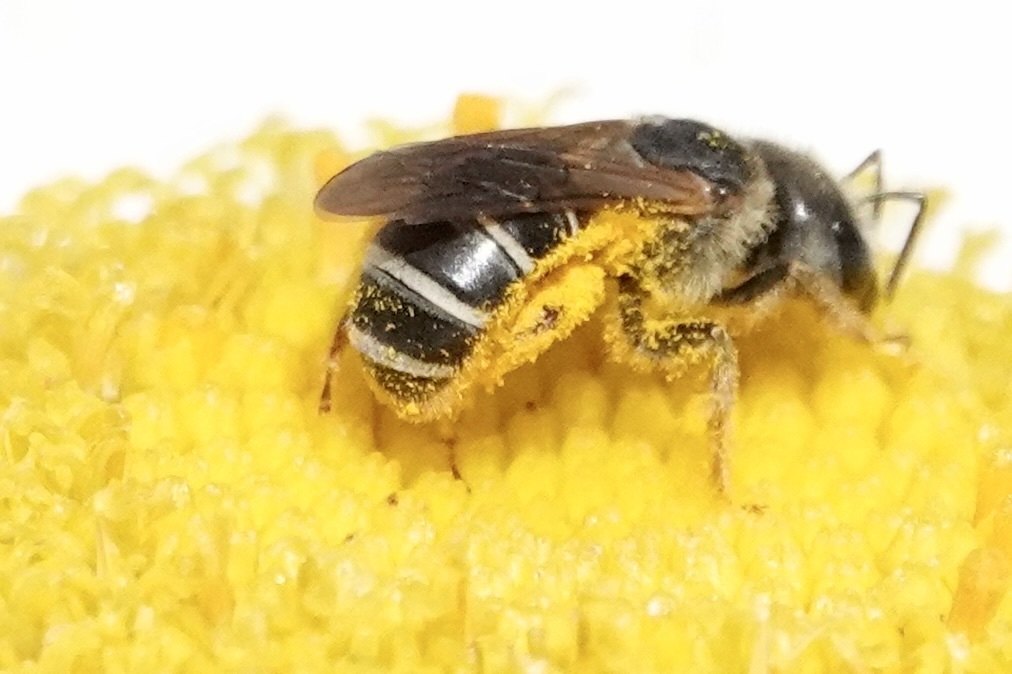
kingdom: Animalia
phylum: Arthropoda
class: Insecta
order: Hymenoptera
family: Halictidae
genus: Halictus
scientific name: Halictus ligatus
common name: Ligated furrow bee
